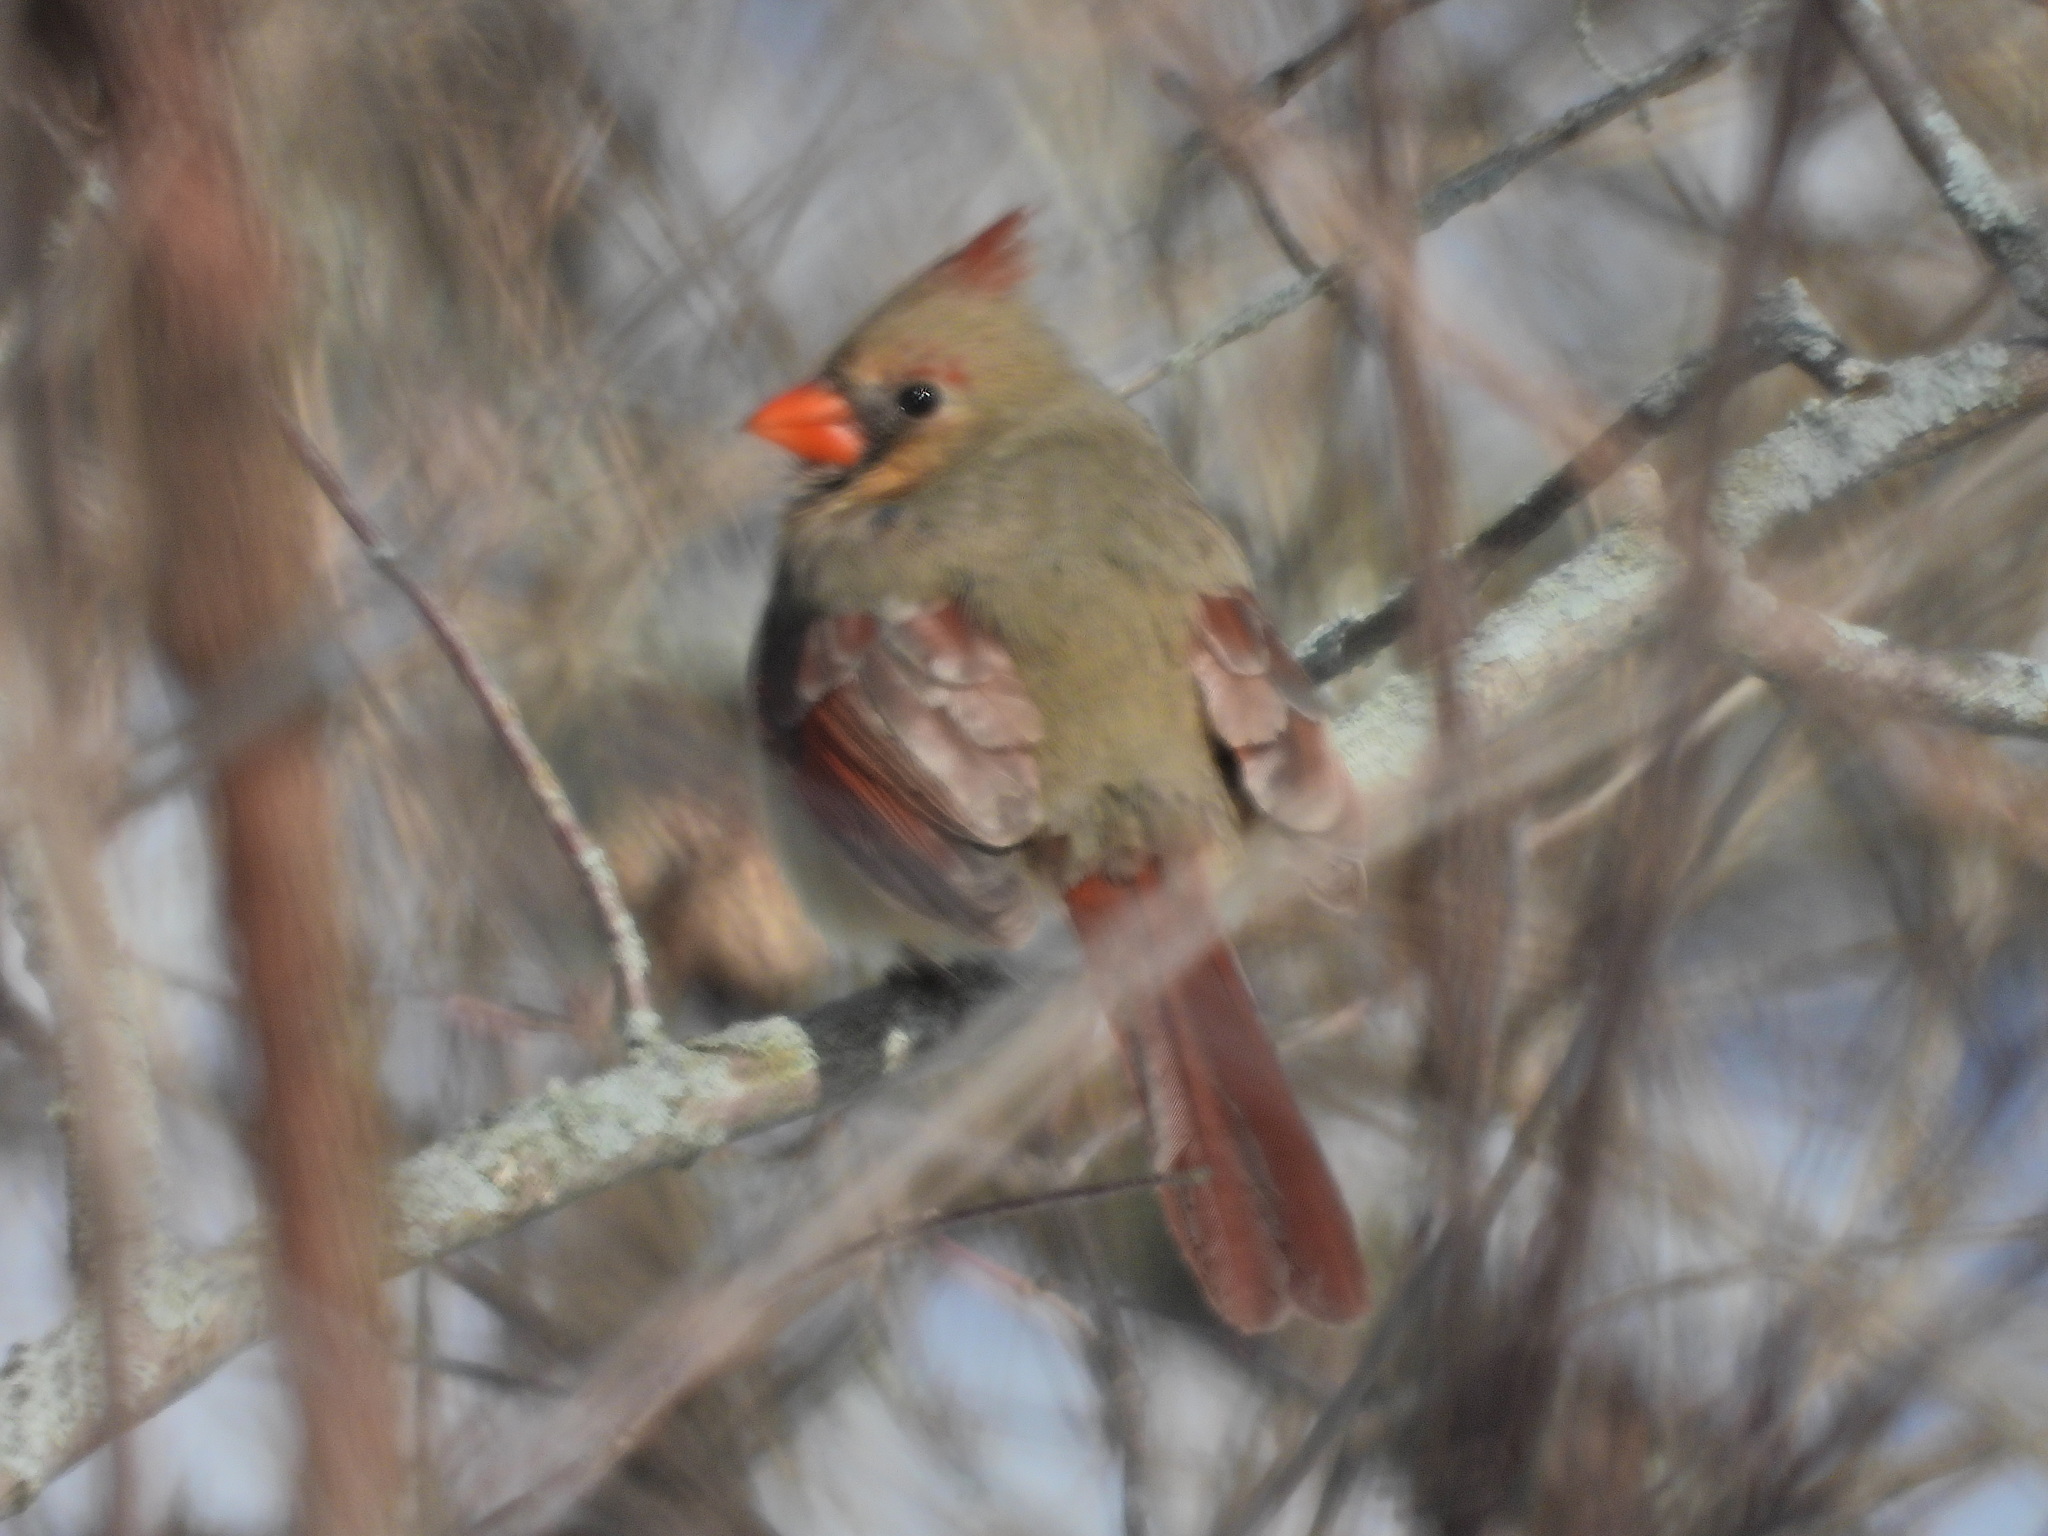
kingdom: Animalia
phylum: Chordata
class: Aves
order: Passeriformes
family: Cardinalidae
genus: Cardinalis
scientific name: Cardinalis cardinalis
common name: Northern cardinal
